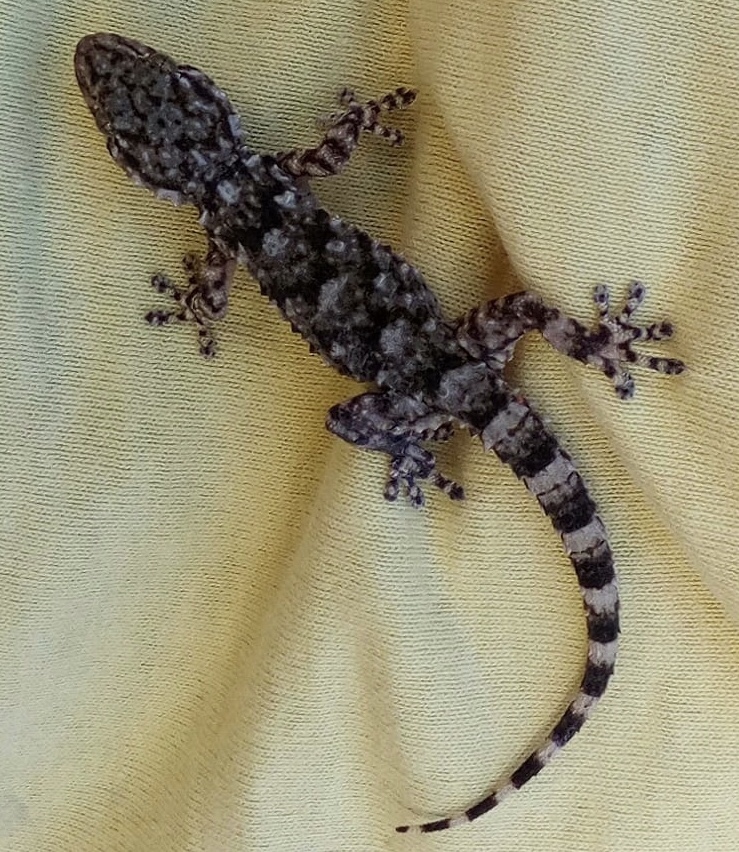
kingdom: Animalia
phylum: Chordata
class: Squamata
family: Phyllodactylidae
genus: Tarentola
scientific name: Tarentola mauritanica
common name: Moorish gecko
